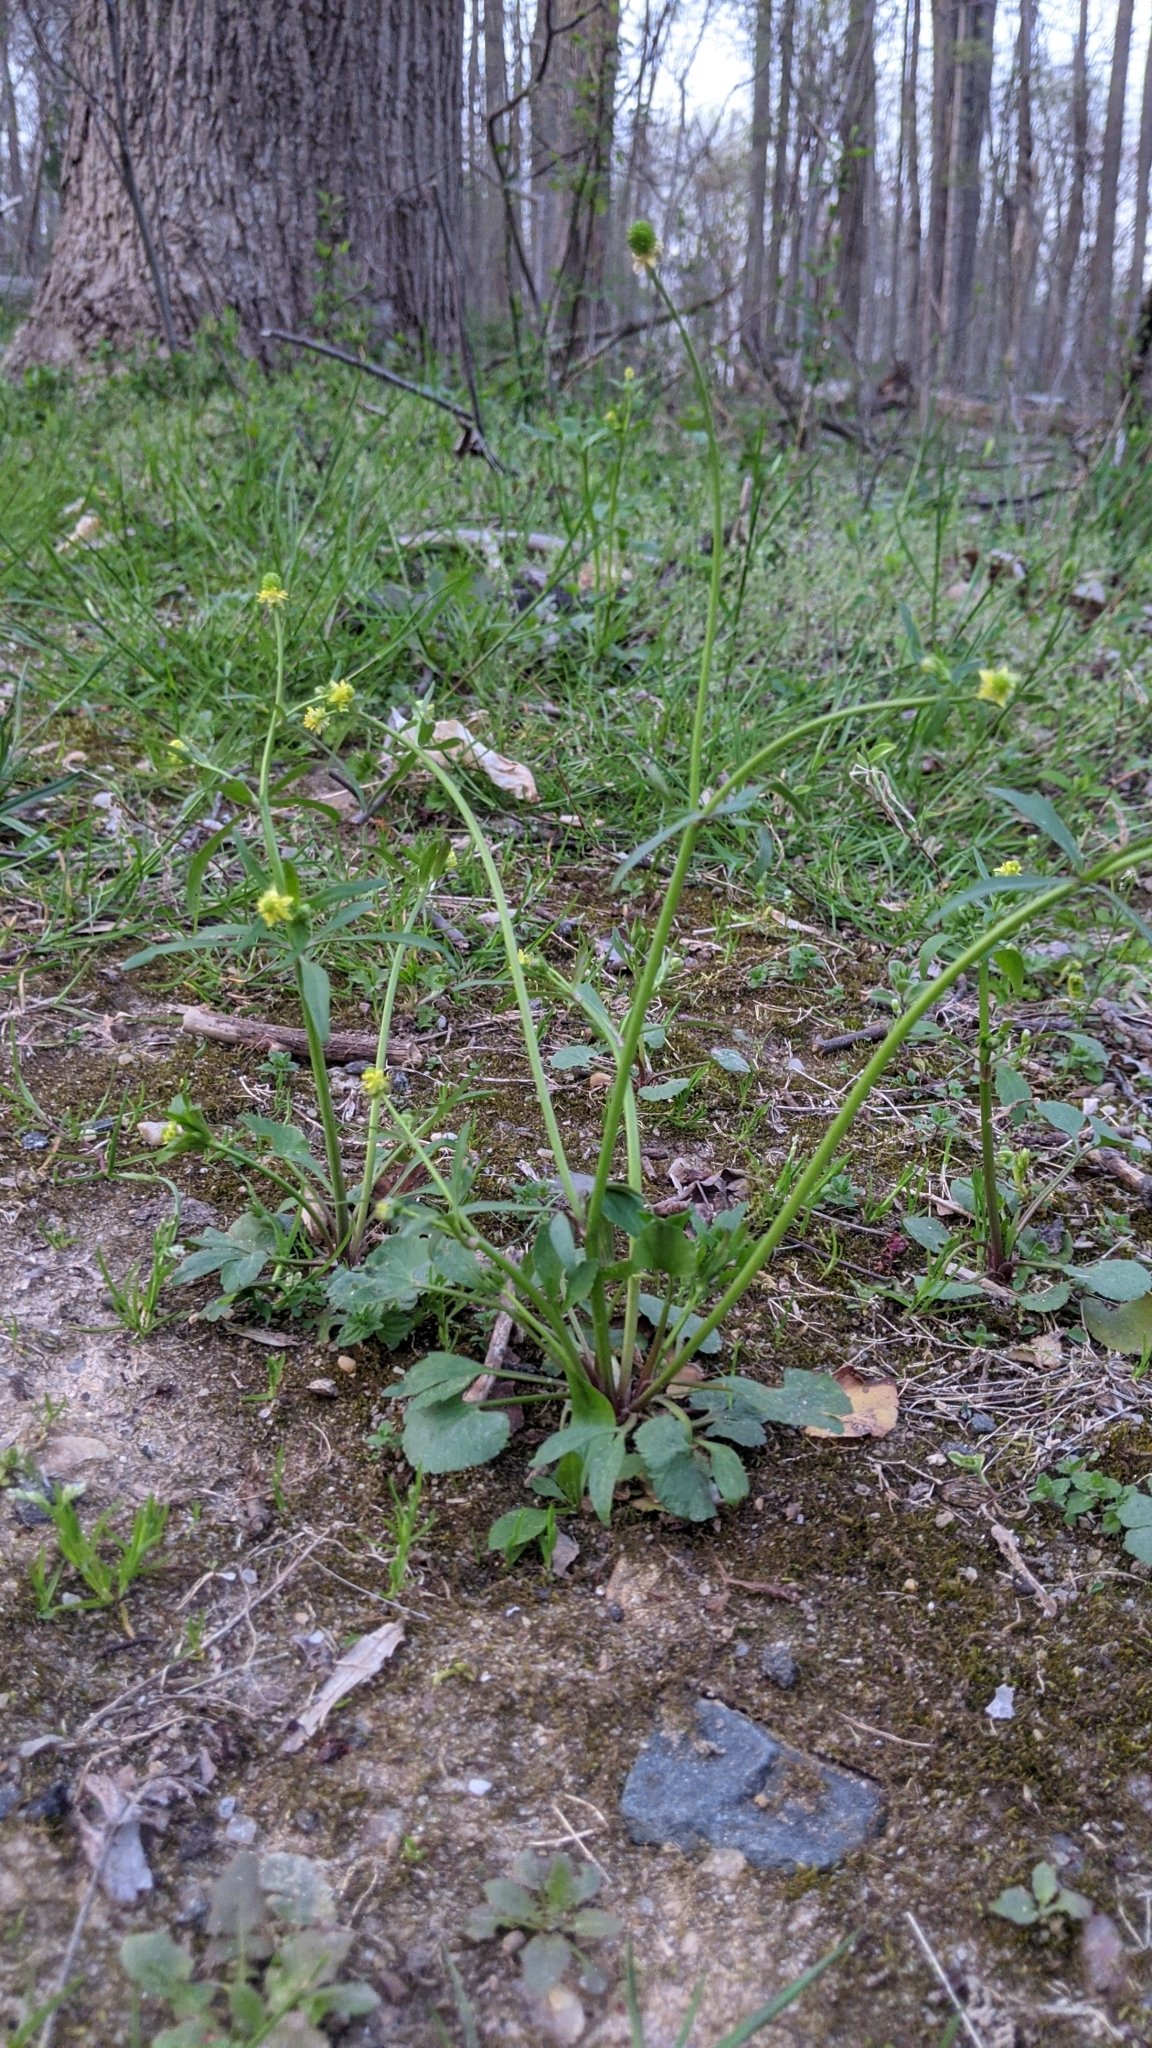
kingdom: Plantae
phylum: Tracheophyta
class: Magnoliopsida
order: Ranunculales
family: Ranunculaceae
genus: Ranunculus
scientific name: Ranunculus abortivus
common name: Early wood buttercup
